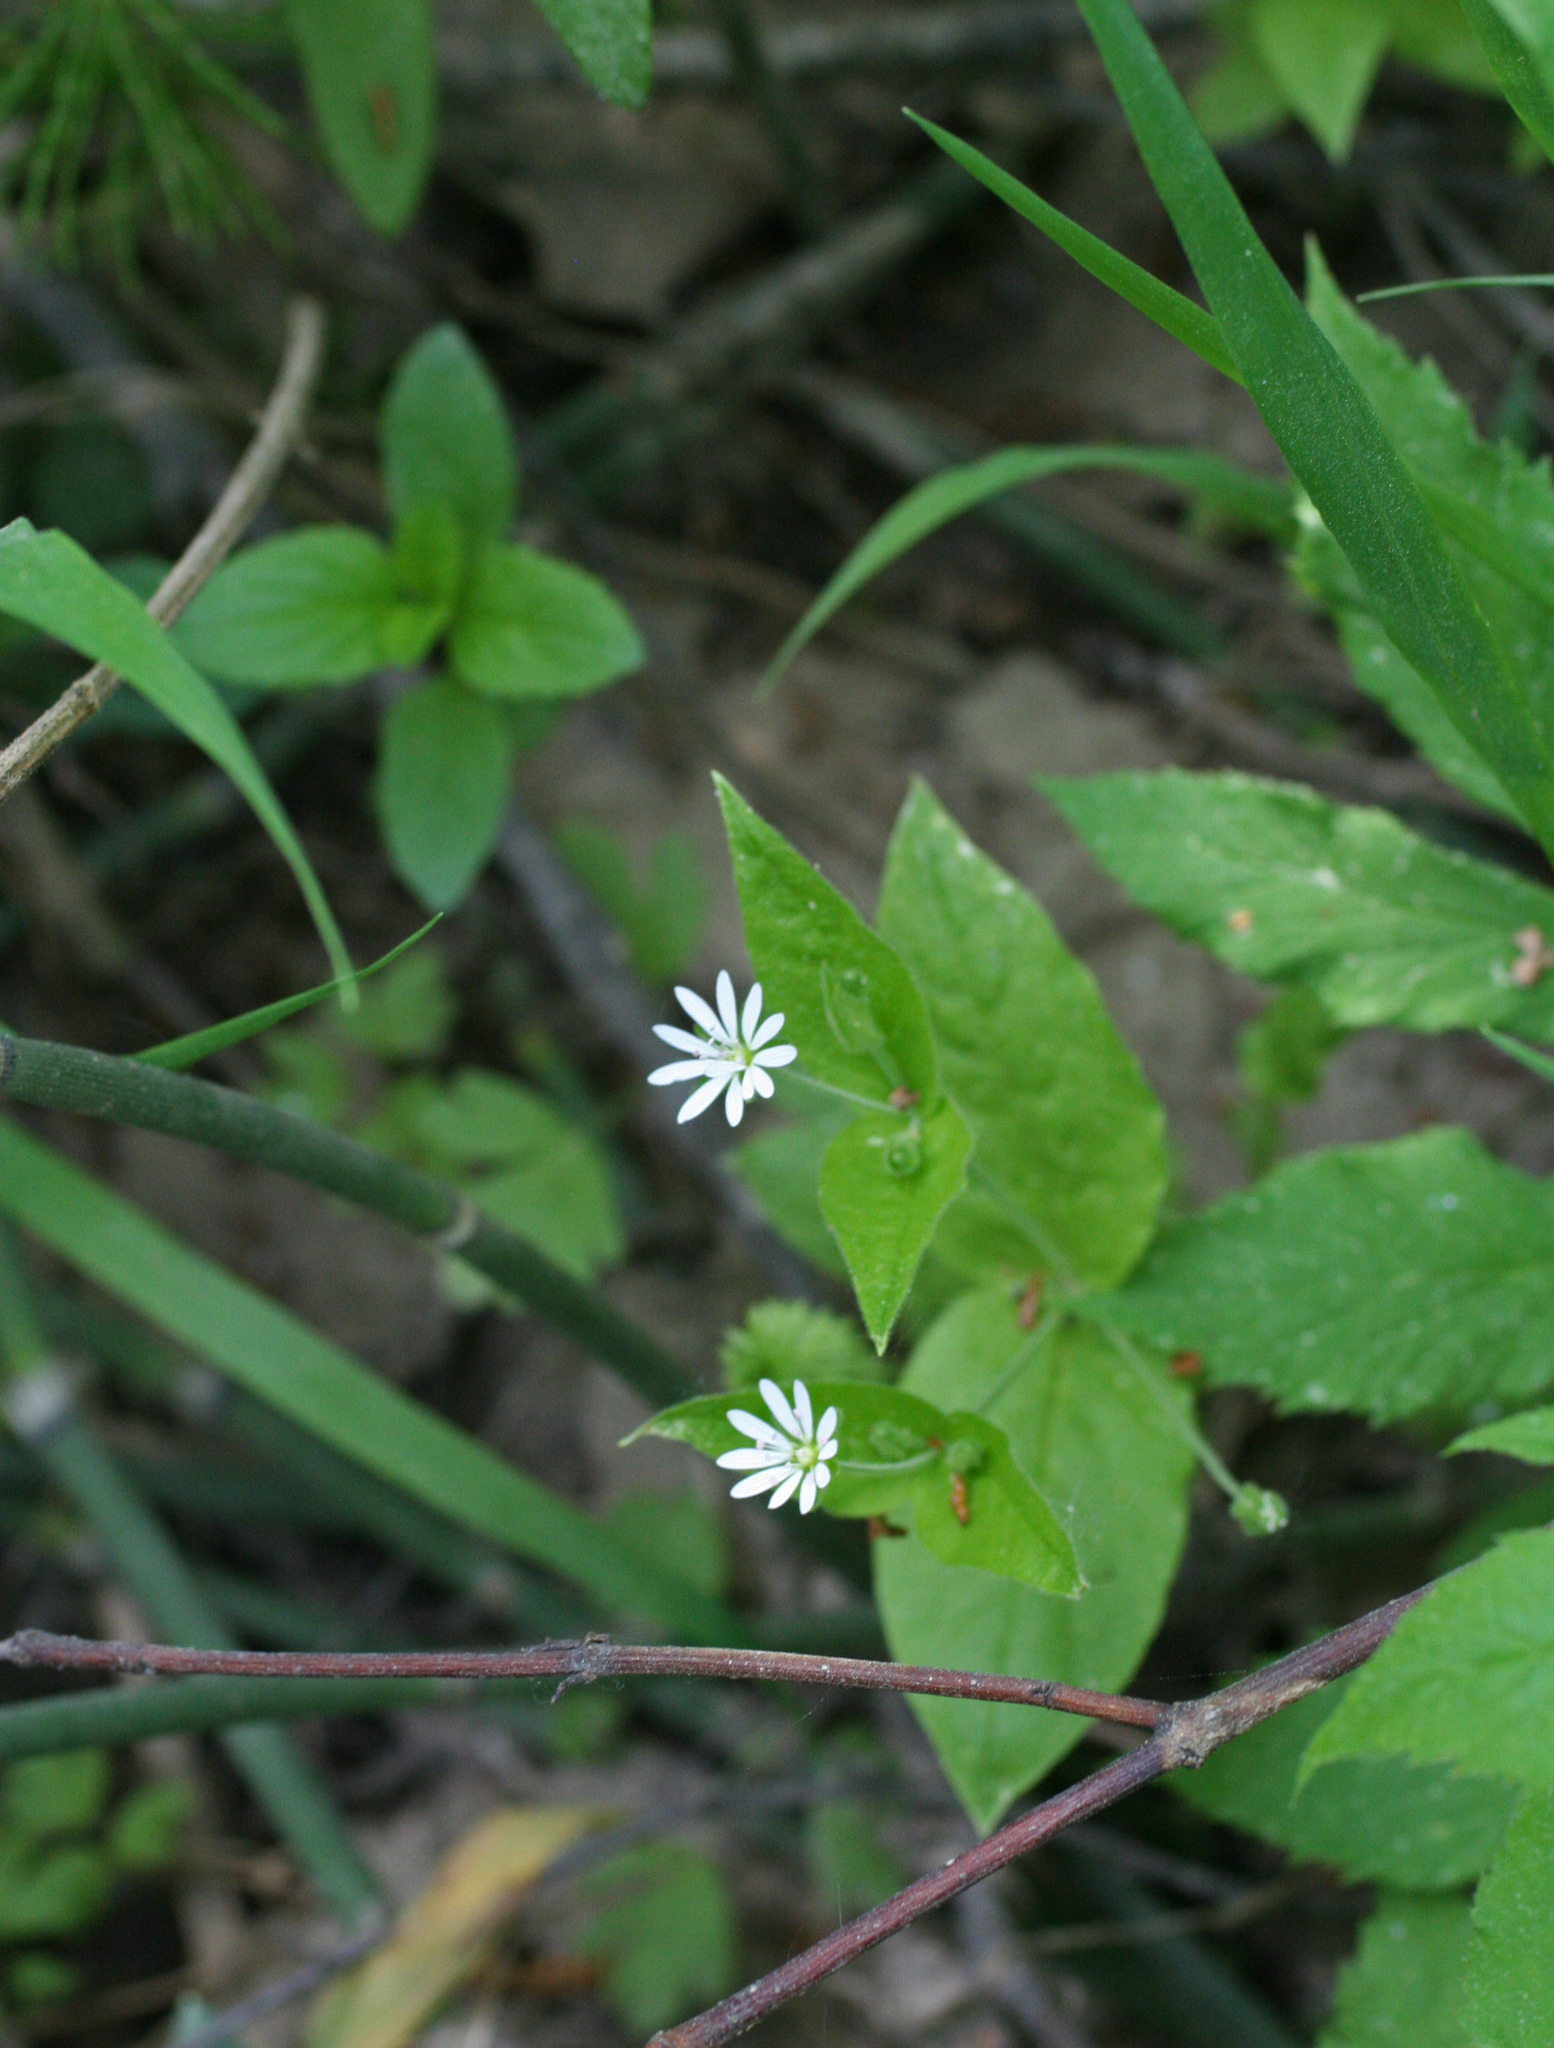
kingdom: Plantae
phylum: Tracheophyta
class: Magnoliopsida
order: Caryophyllales
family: Caryophyllaceae
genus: Stellaria
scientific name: Stellaria bungeana
